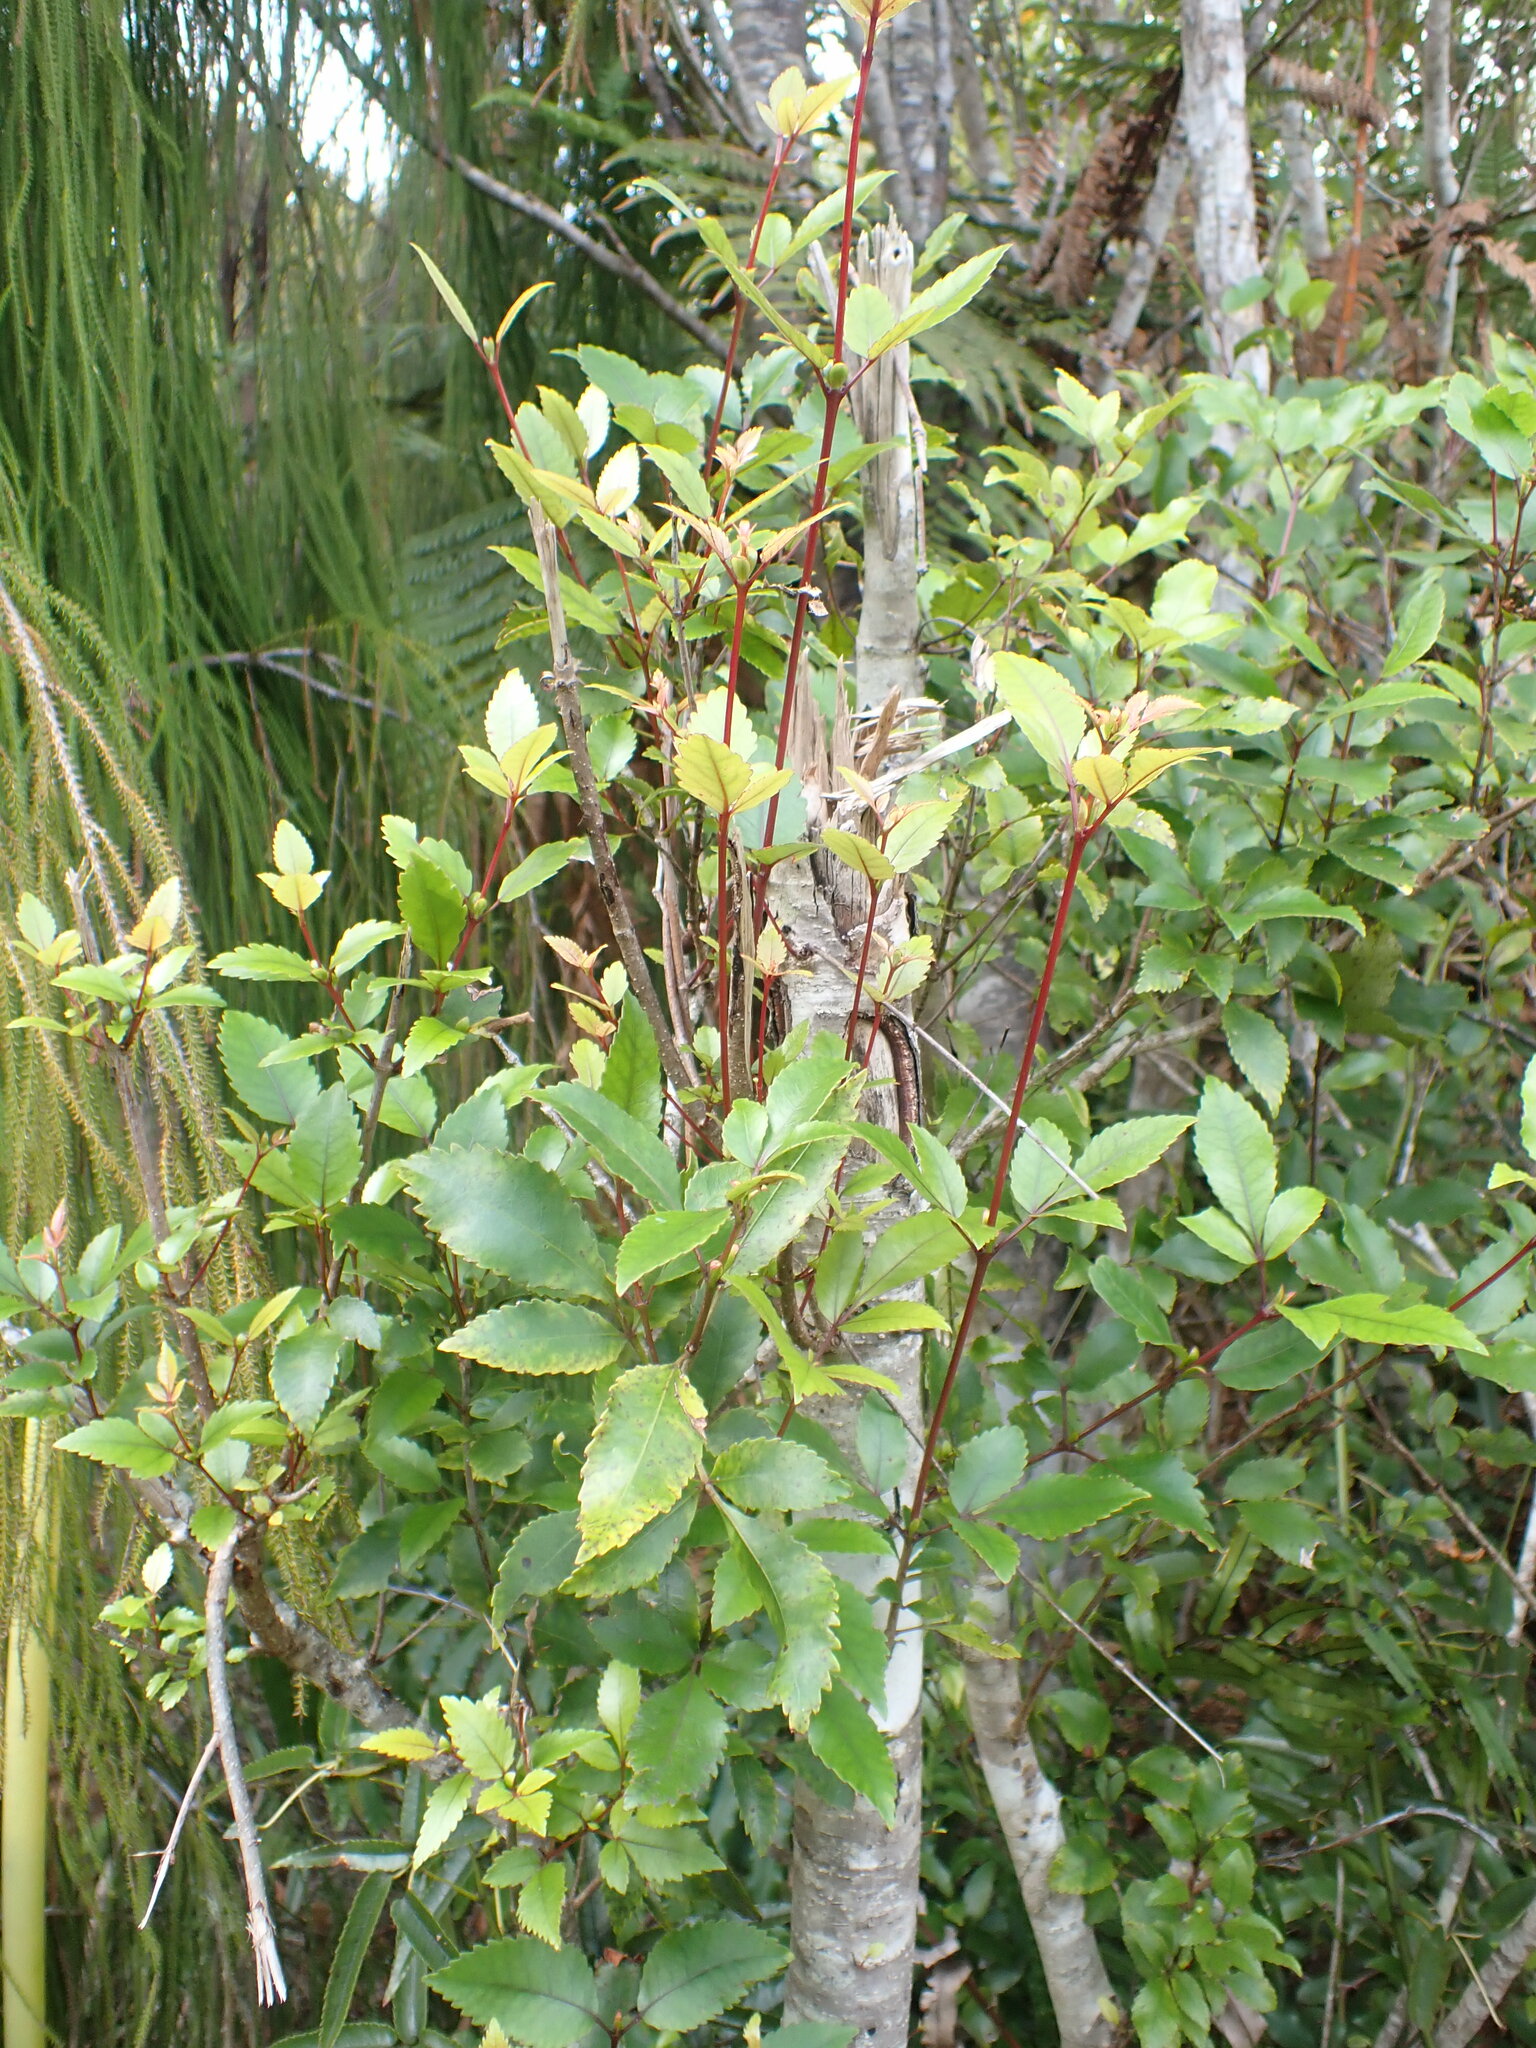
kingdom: Plantae
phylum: Tracheophyta
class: Magnoliopsida
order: Oxalidales
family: Cunoniaceae
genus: Pterophylla
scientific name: Pterophylla racemosa
